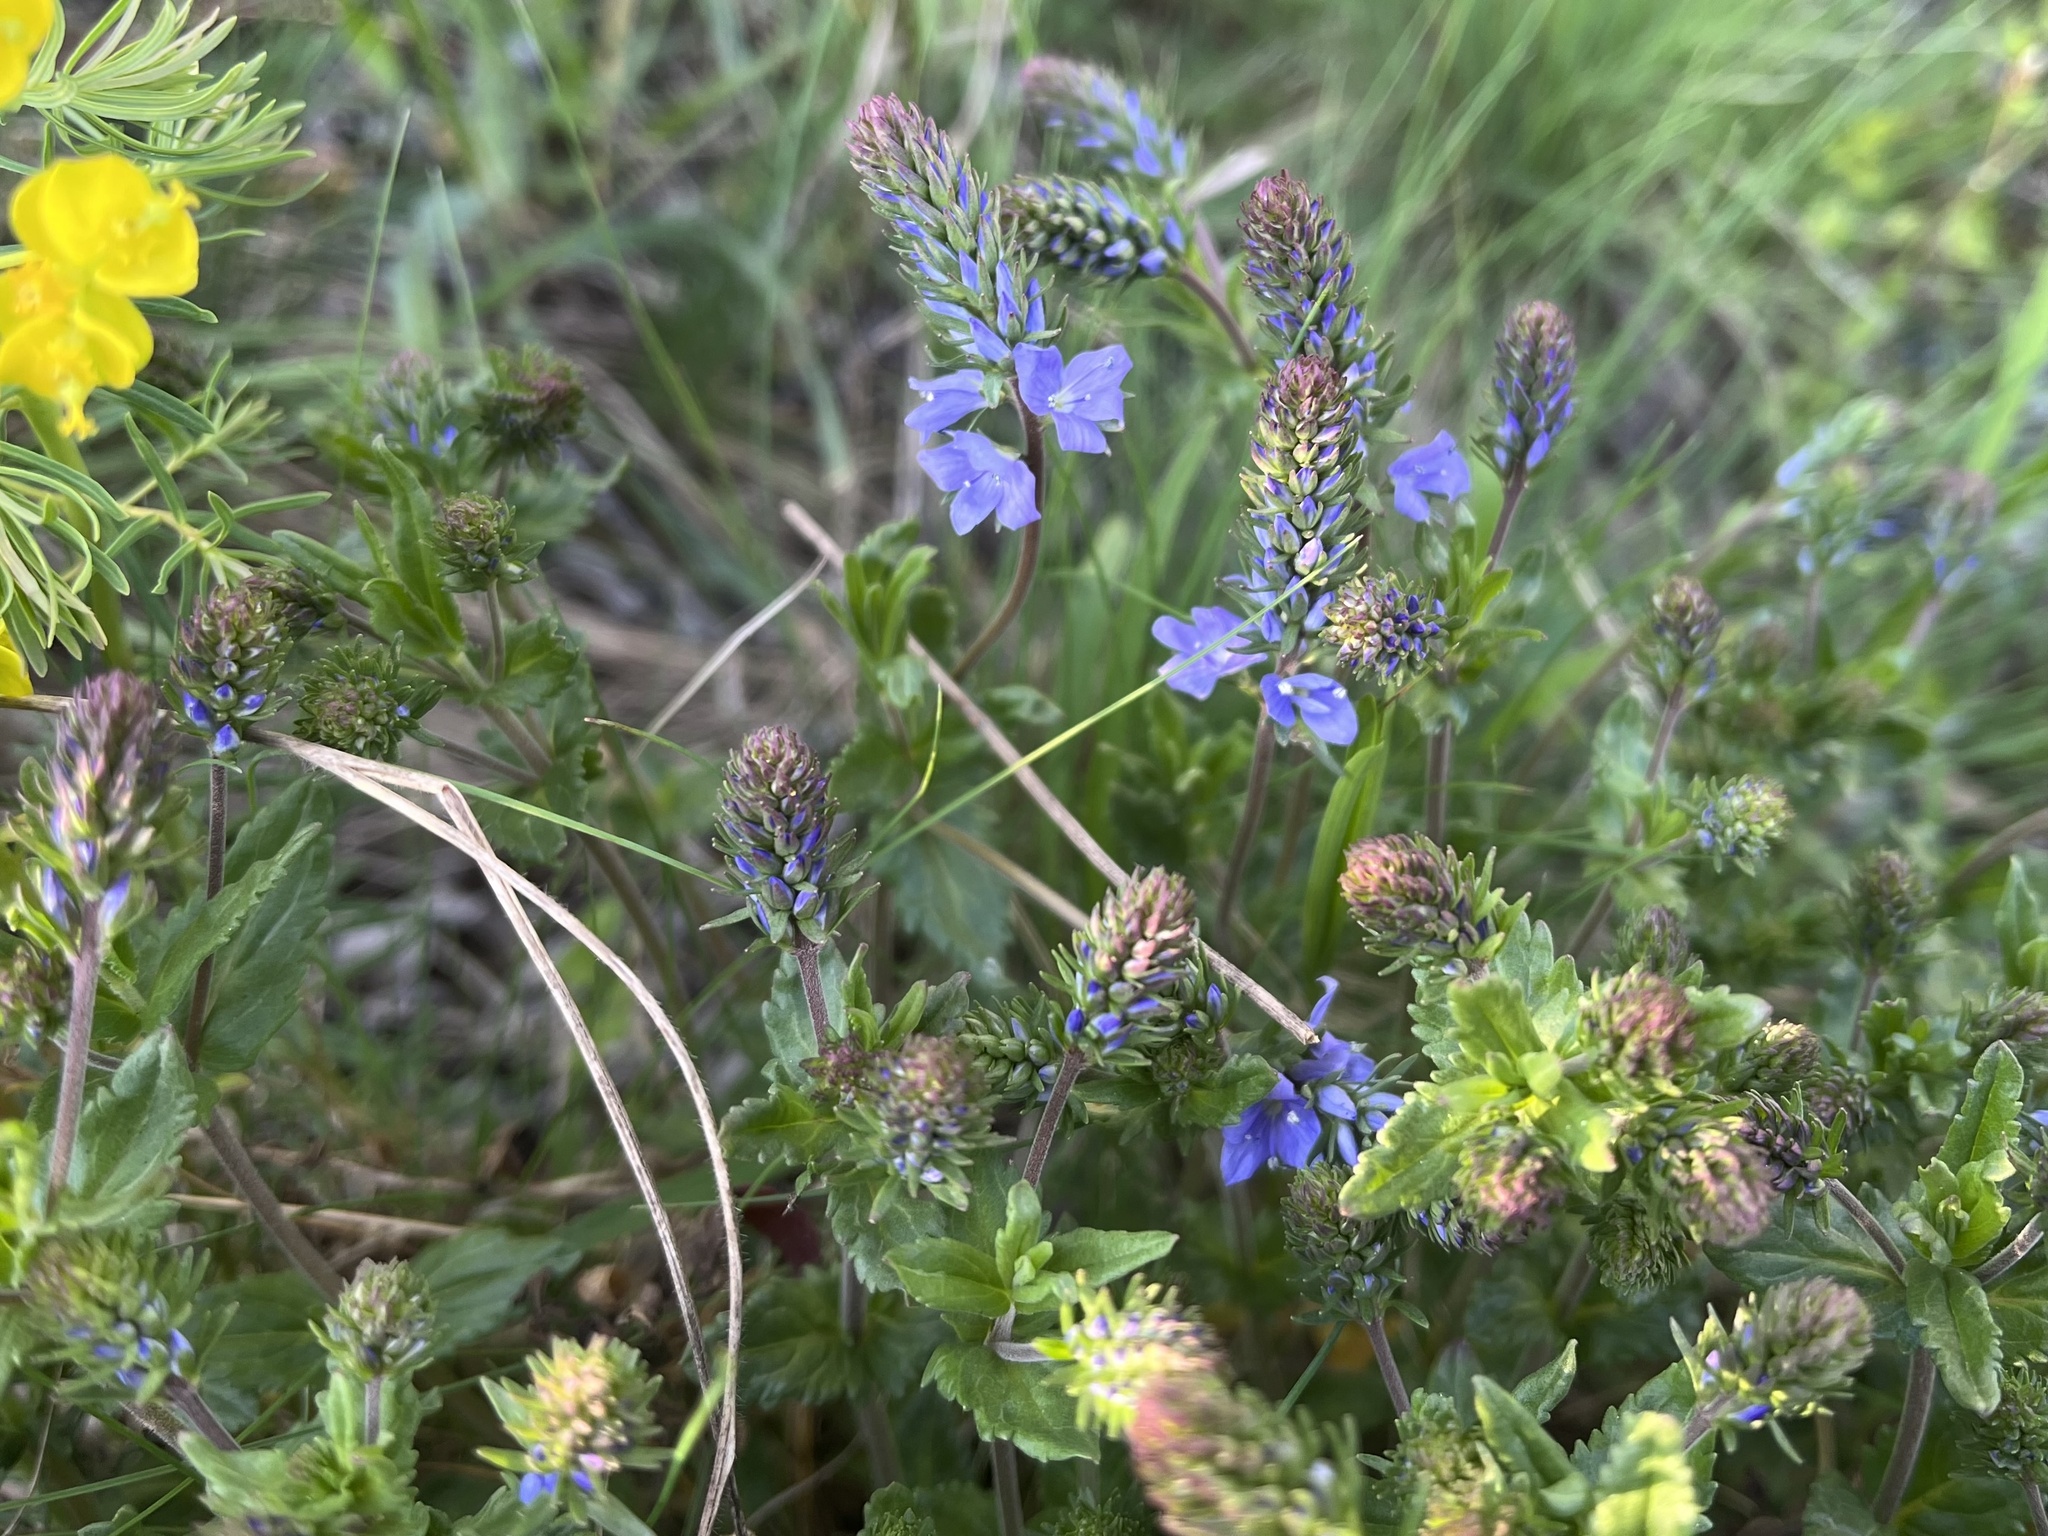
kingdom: Plantae
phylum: Tracheophyta
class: Magnoliopsida
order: Lamiales
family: Plantaginaceae
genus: Veronica
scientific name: Veronica prostrata
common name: Prostrate speedwell
